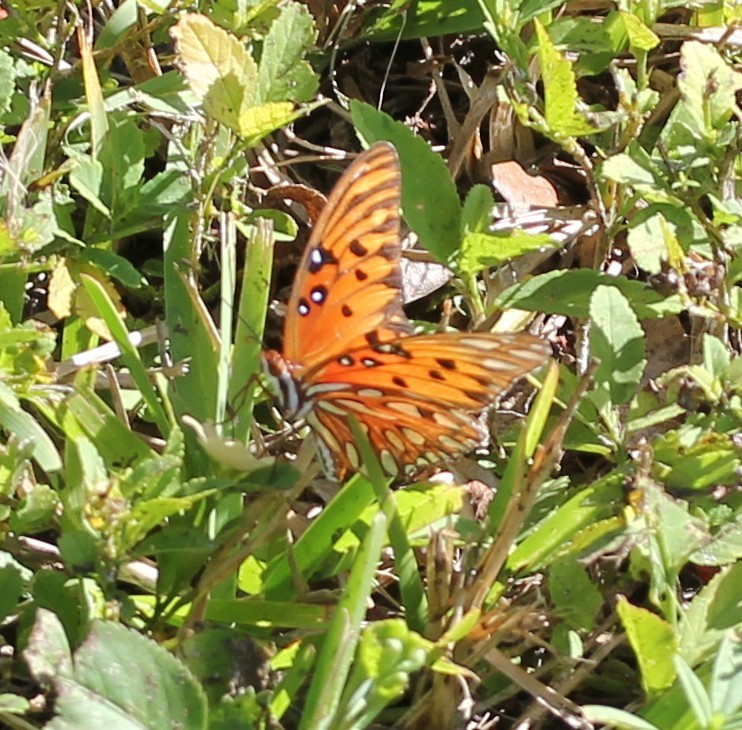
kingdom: Animalia
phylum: Arthropoda
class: Insecta
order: Lepidoptera
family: Nymphalidae
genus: Dione
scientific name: Dione vanillae
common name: Gulf fritillary
